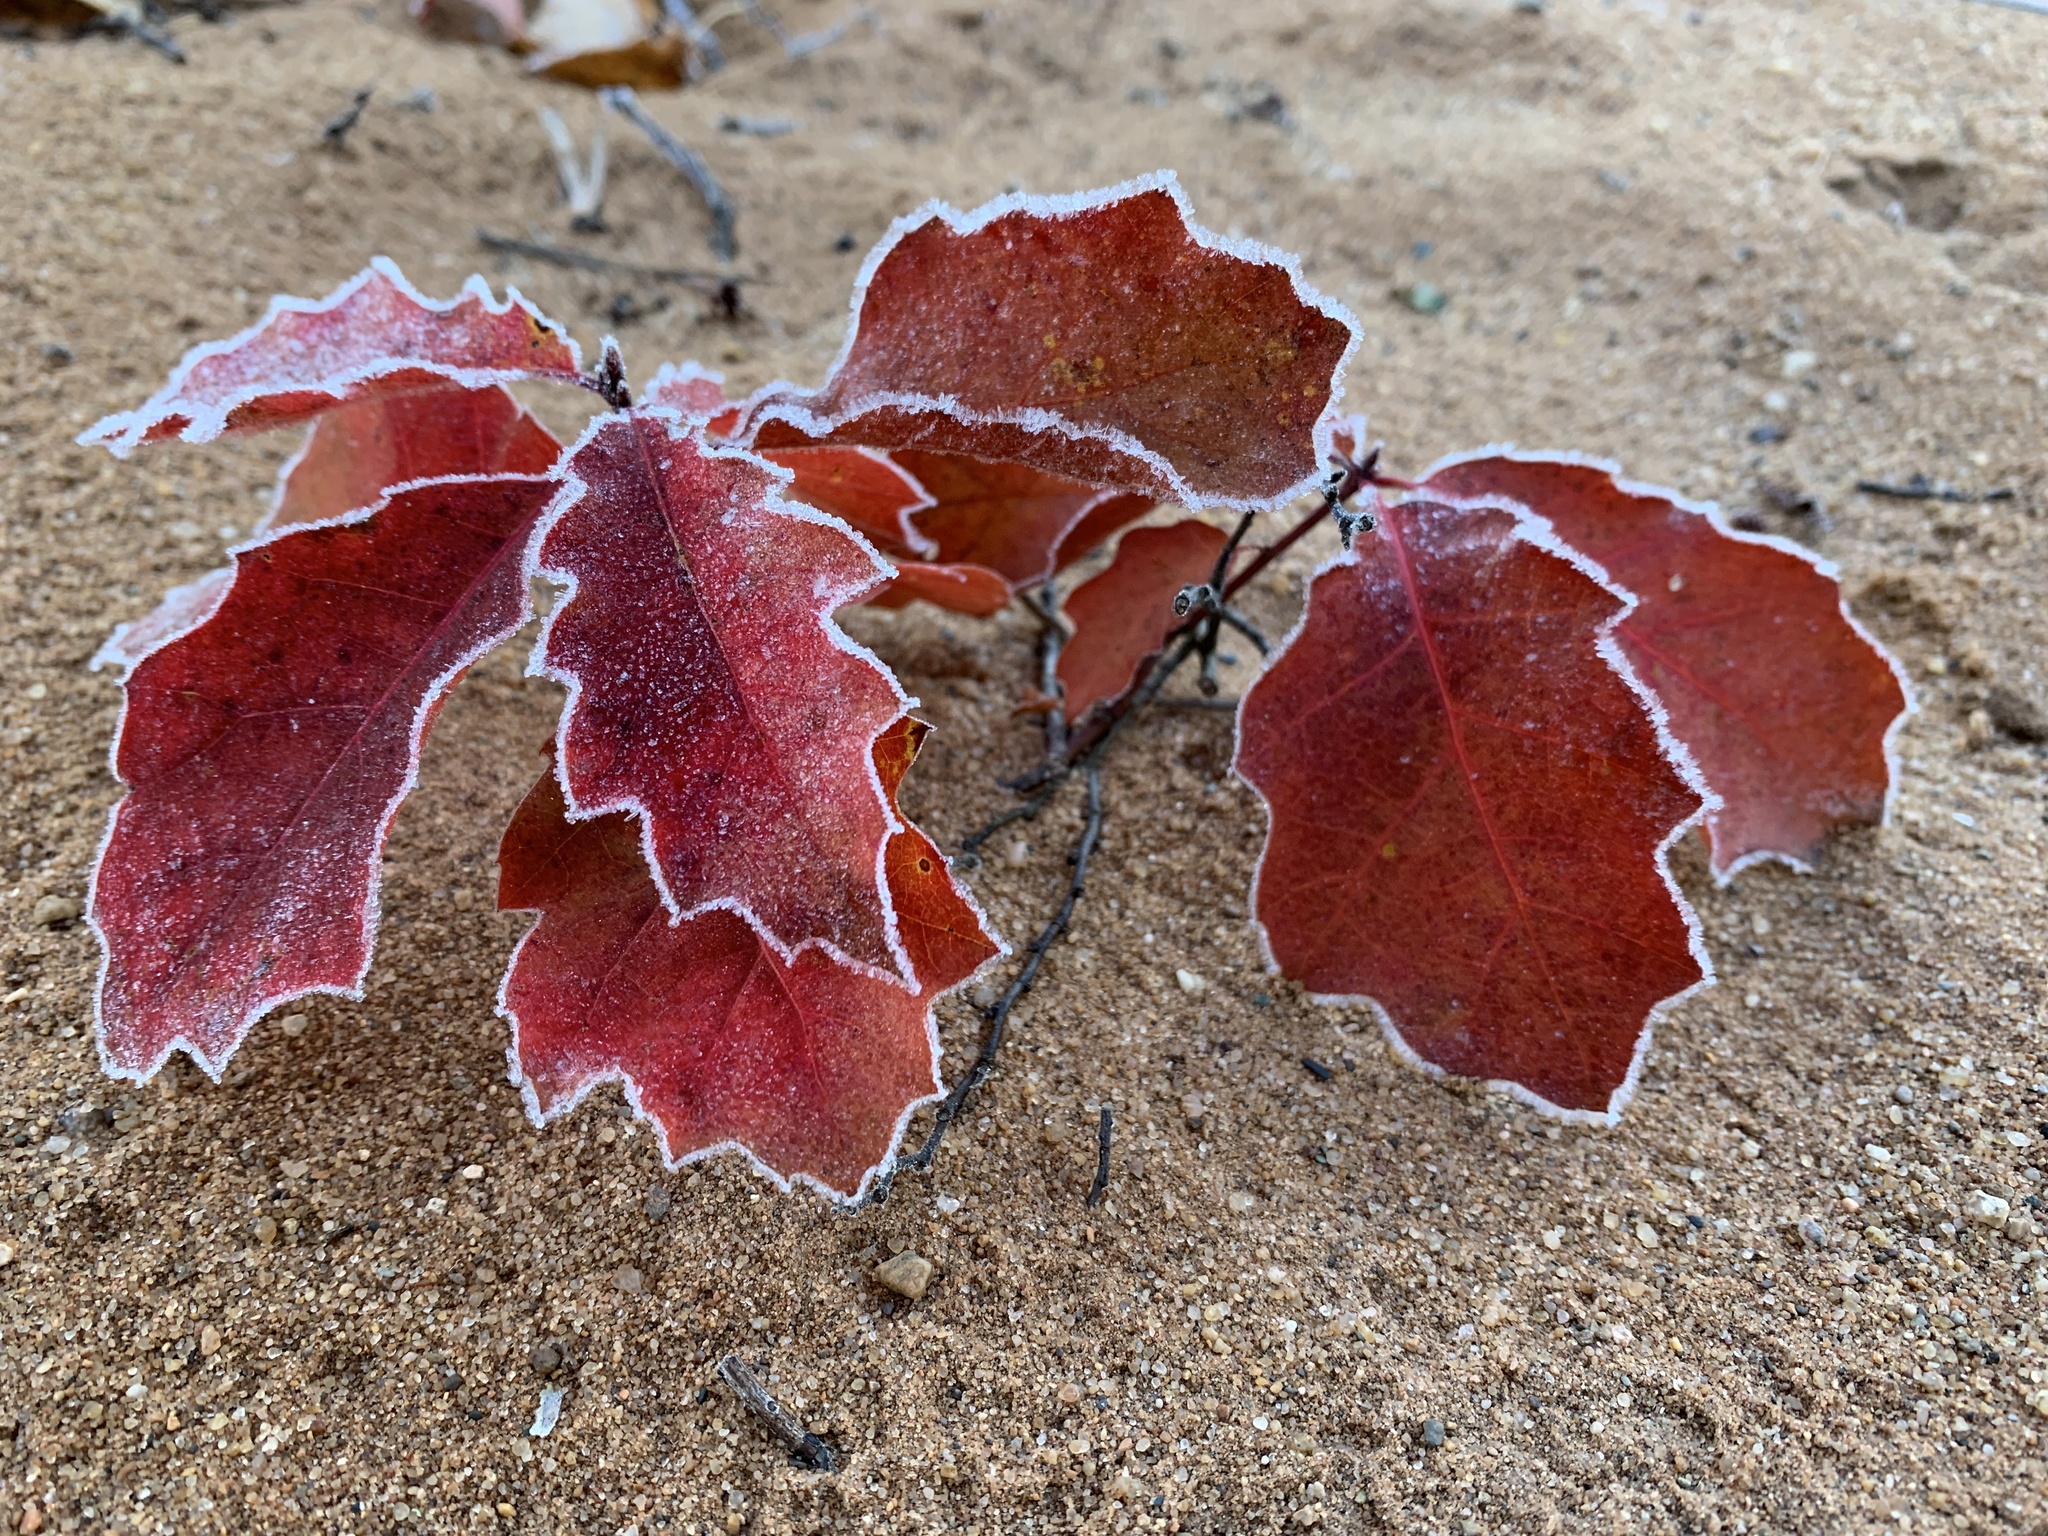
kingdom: Plantae
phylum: Tracheophyta
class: Magnoliopsida
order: Fagales
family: Fagaceae
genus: Quercus
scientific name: Quercus rubra
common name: Red oak
